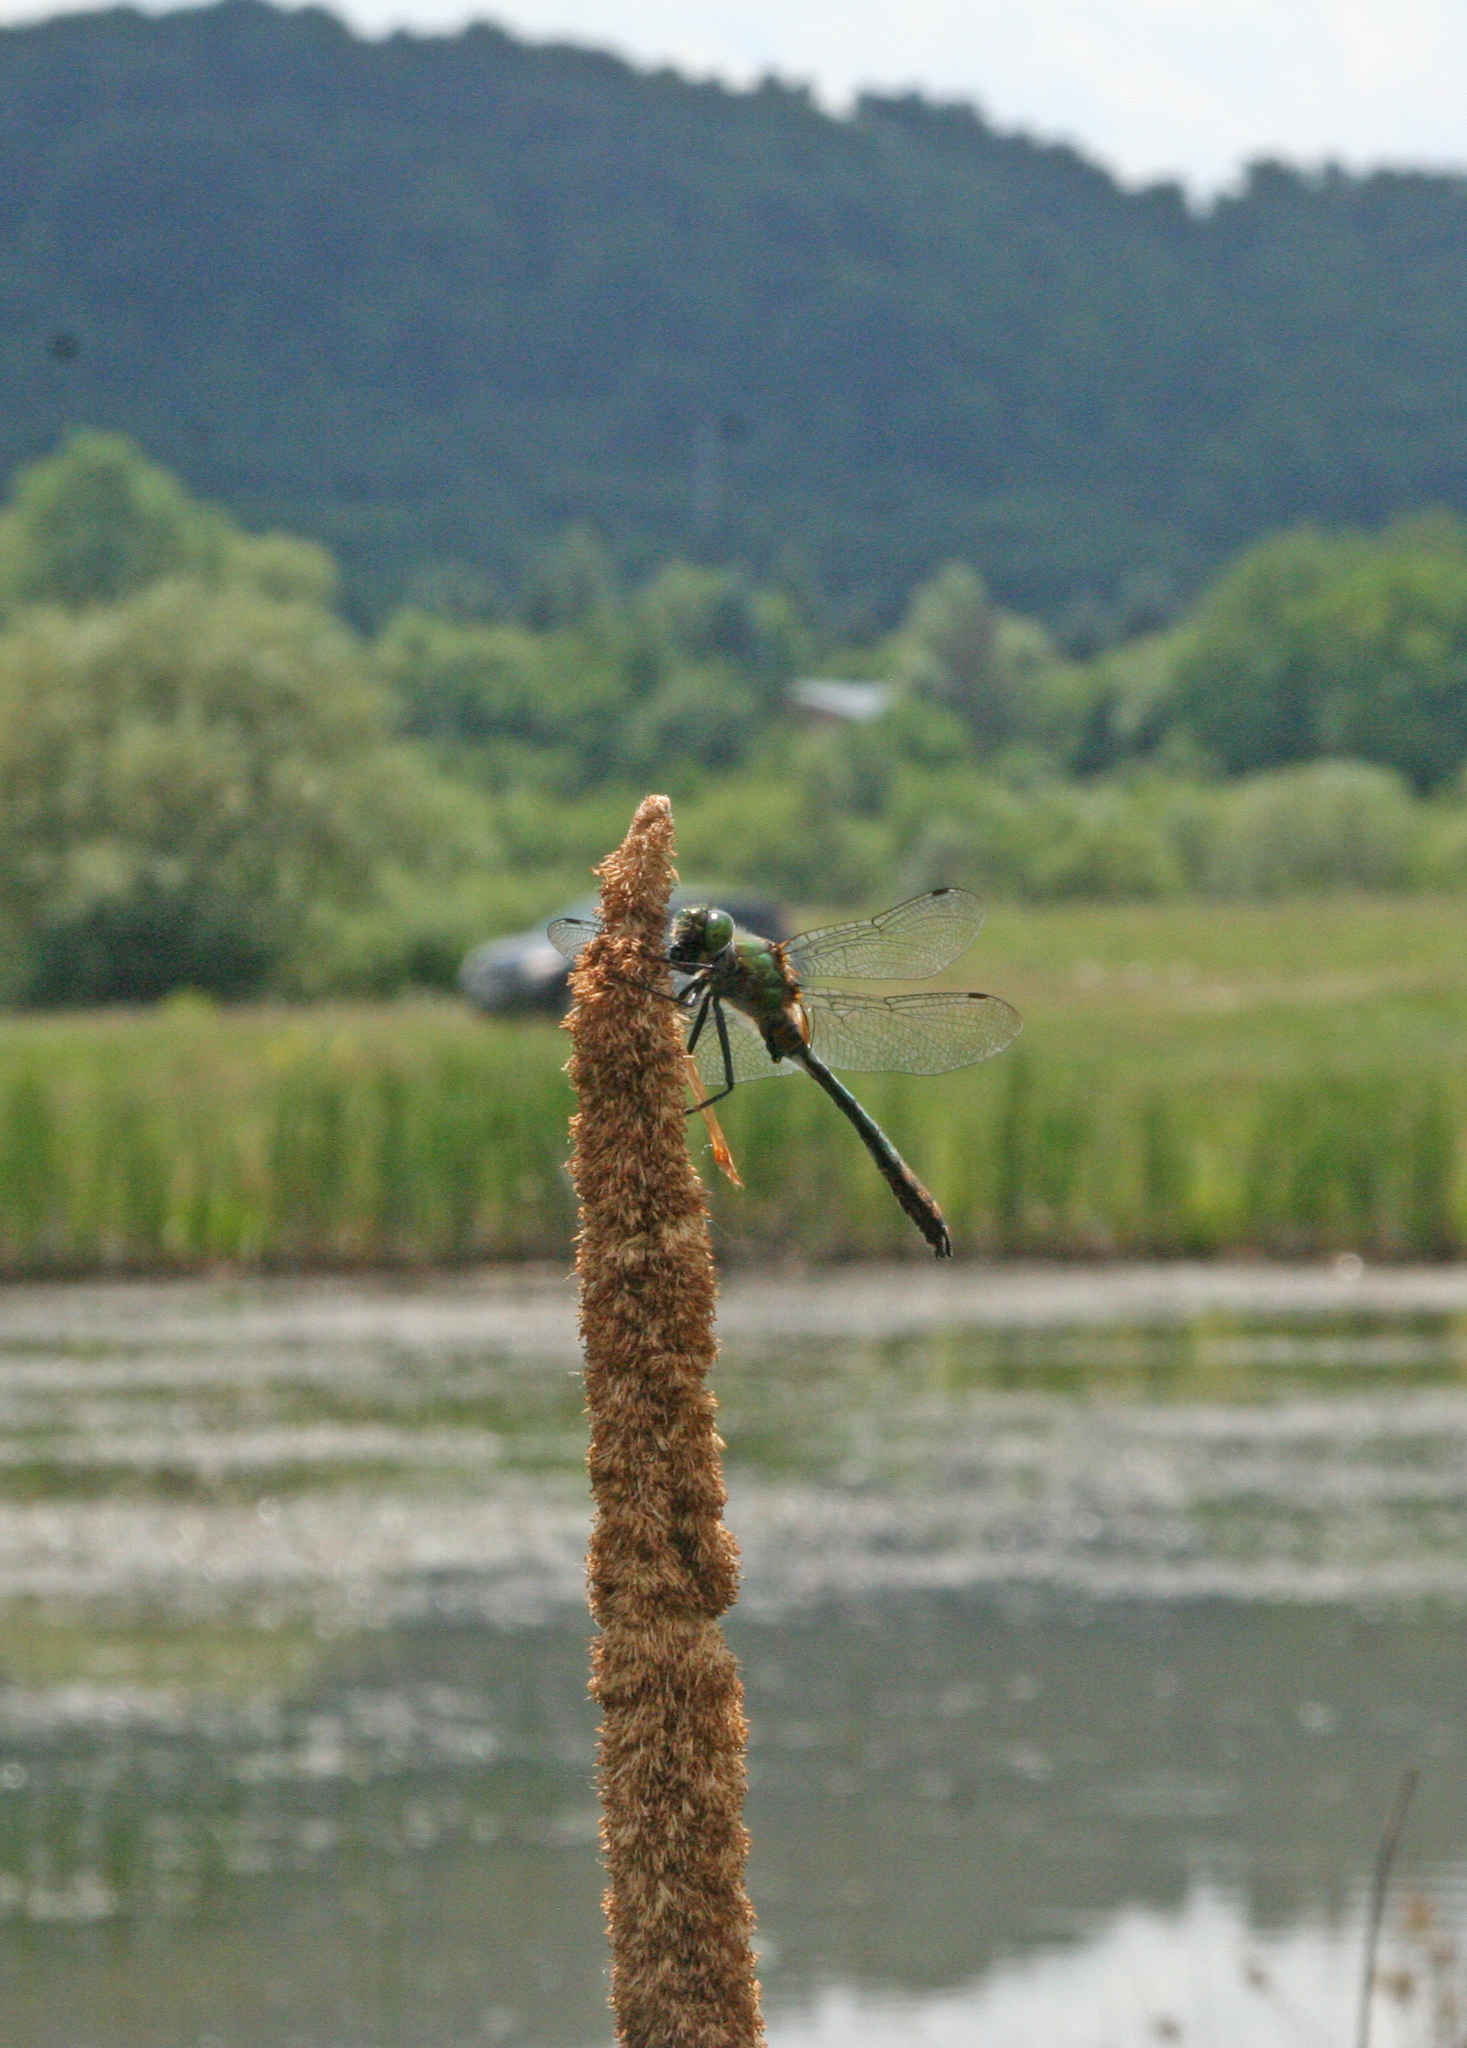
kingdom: Animalia
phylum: Arthropoda
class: Insecta
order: Odonata
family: Corduliidae
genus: Cordulia
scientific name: Cordulia aenea
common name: Downy emerald
